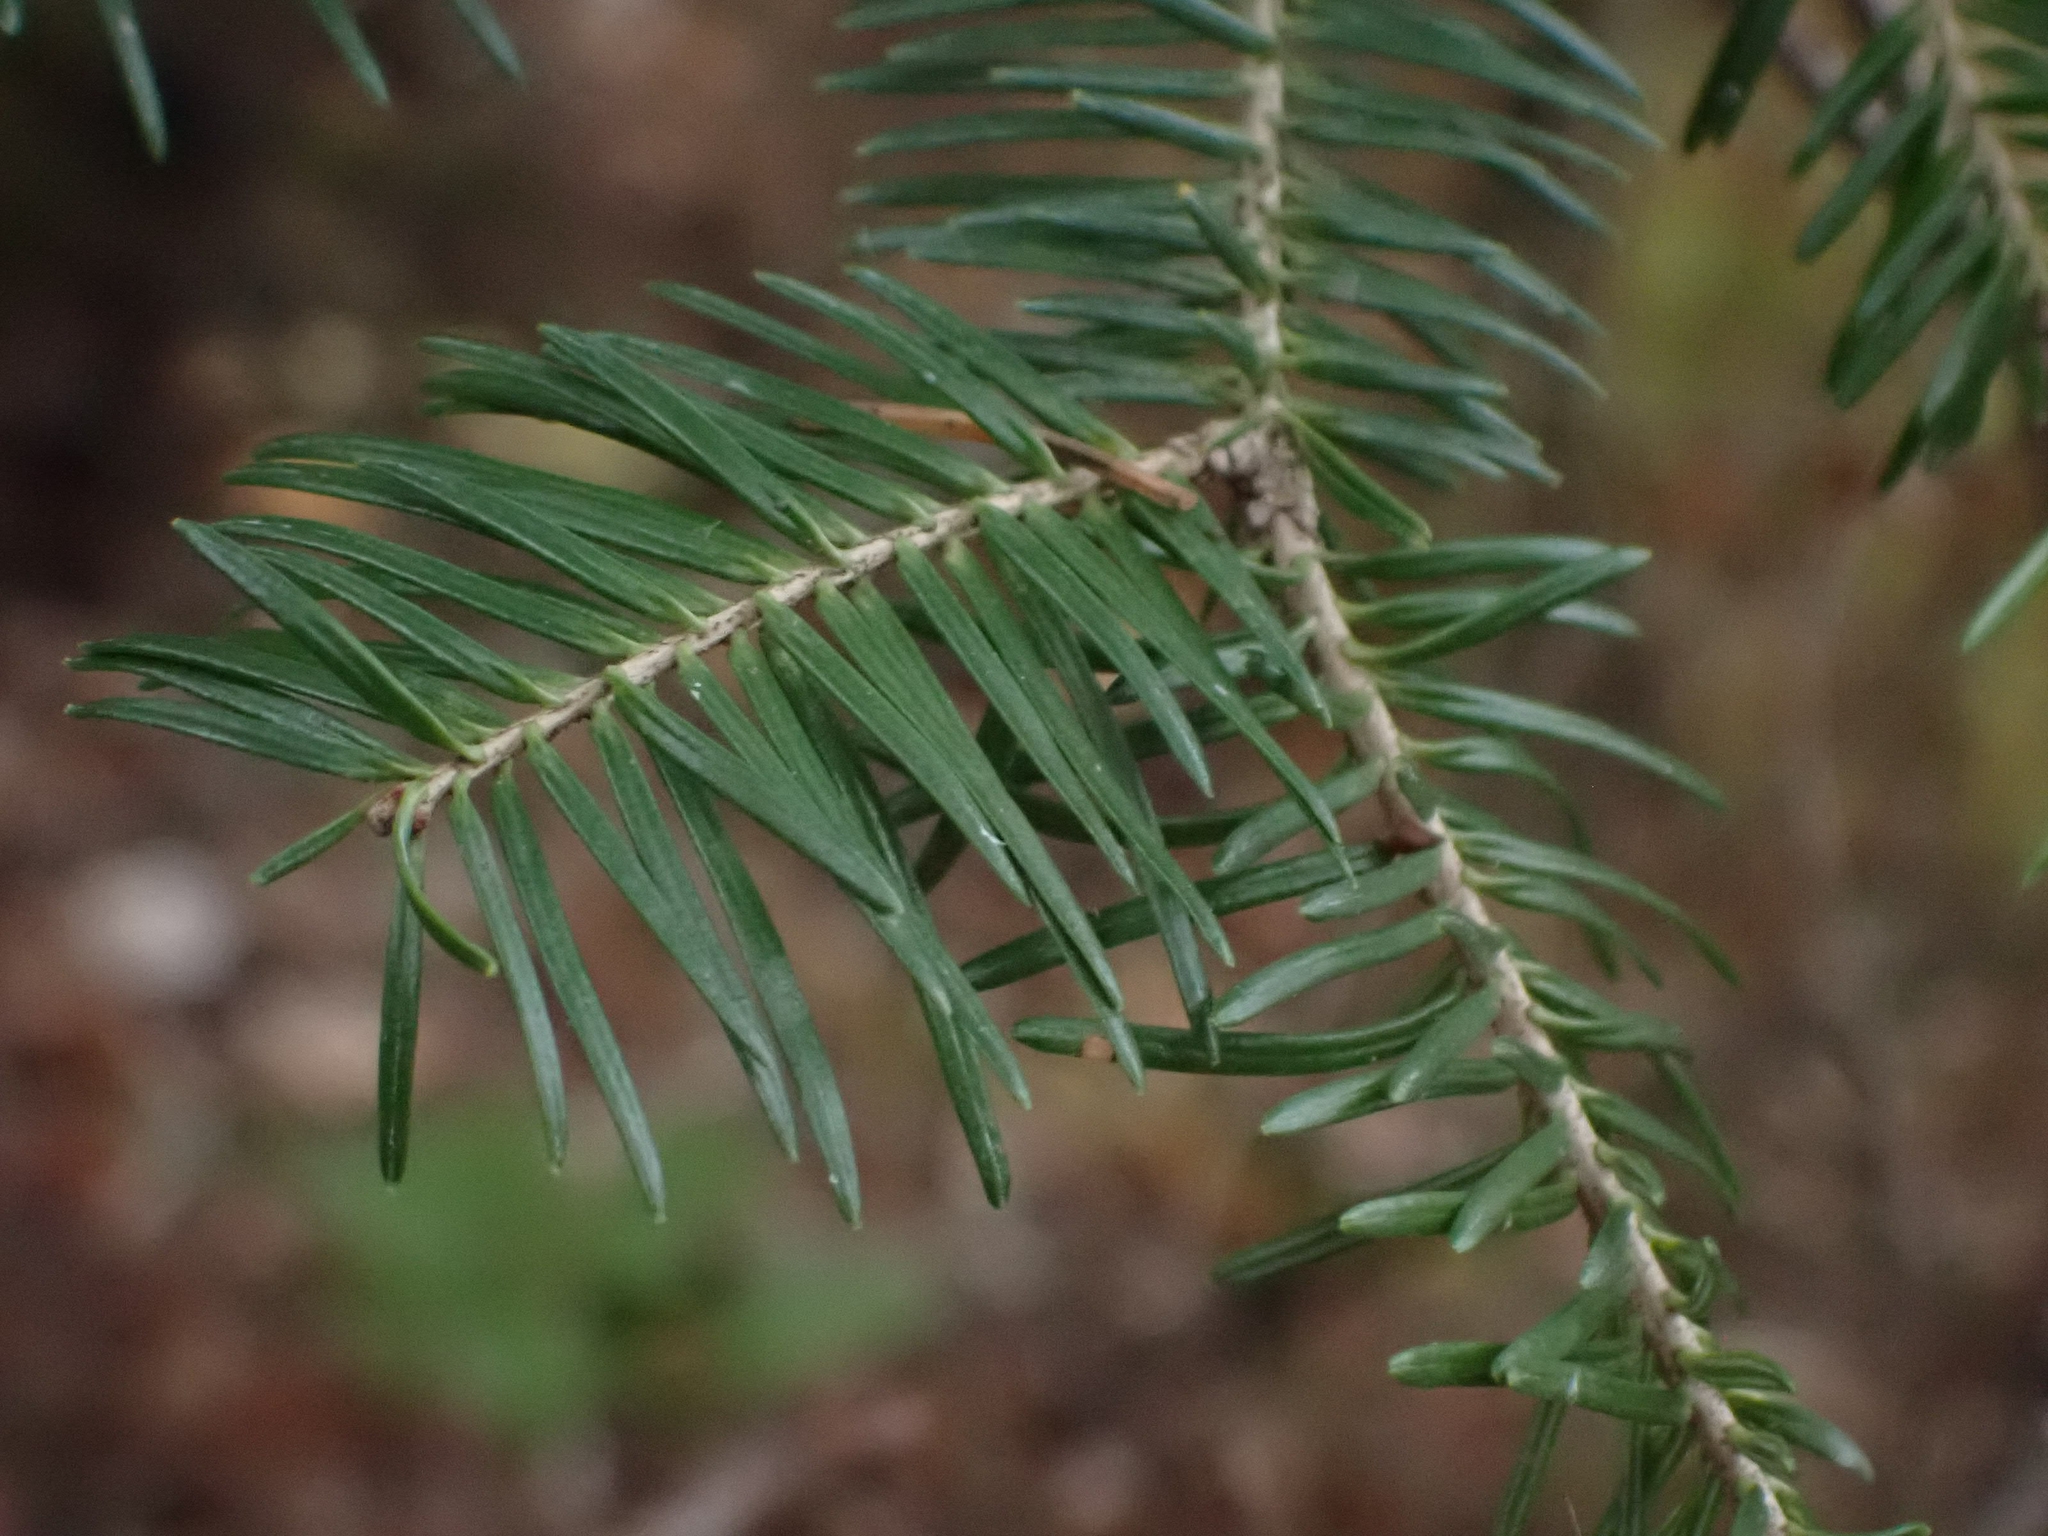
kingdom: Plantae
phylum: Tracheophyta
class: Pinopsida
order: Pinales
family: Pinaceae
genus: Abies
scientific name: Abies balsamea
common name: Balsam fir
